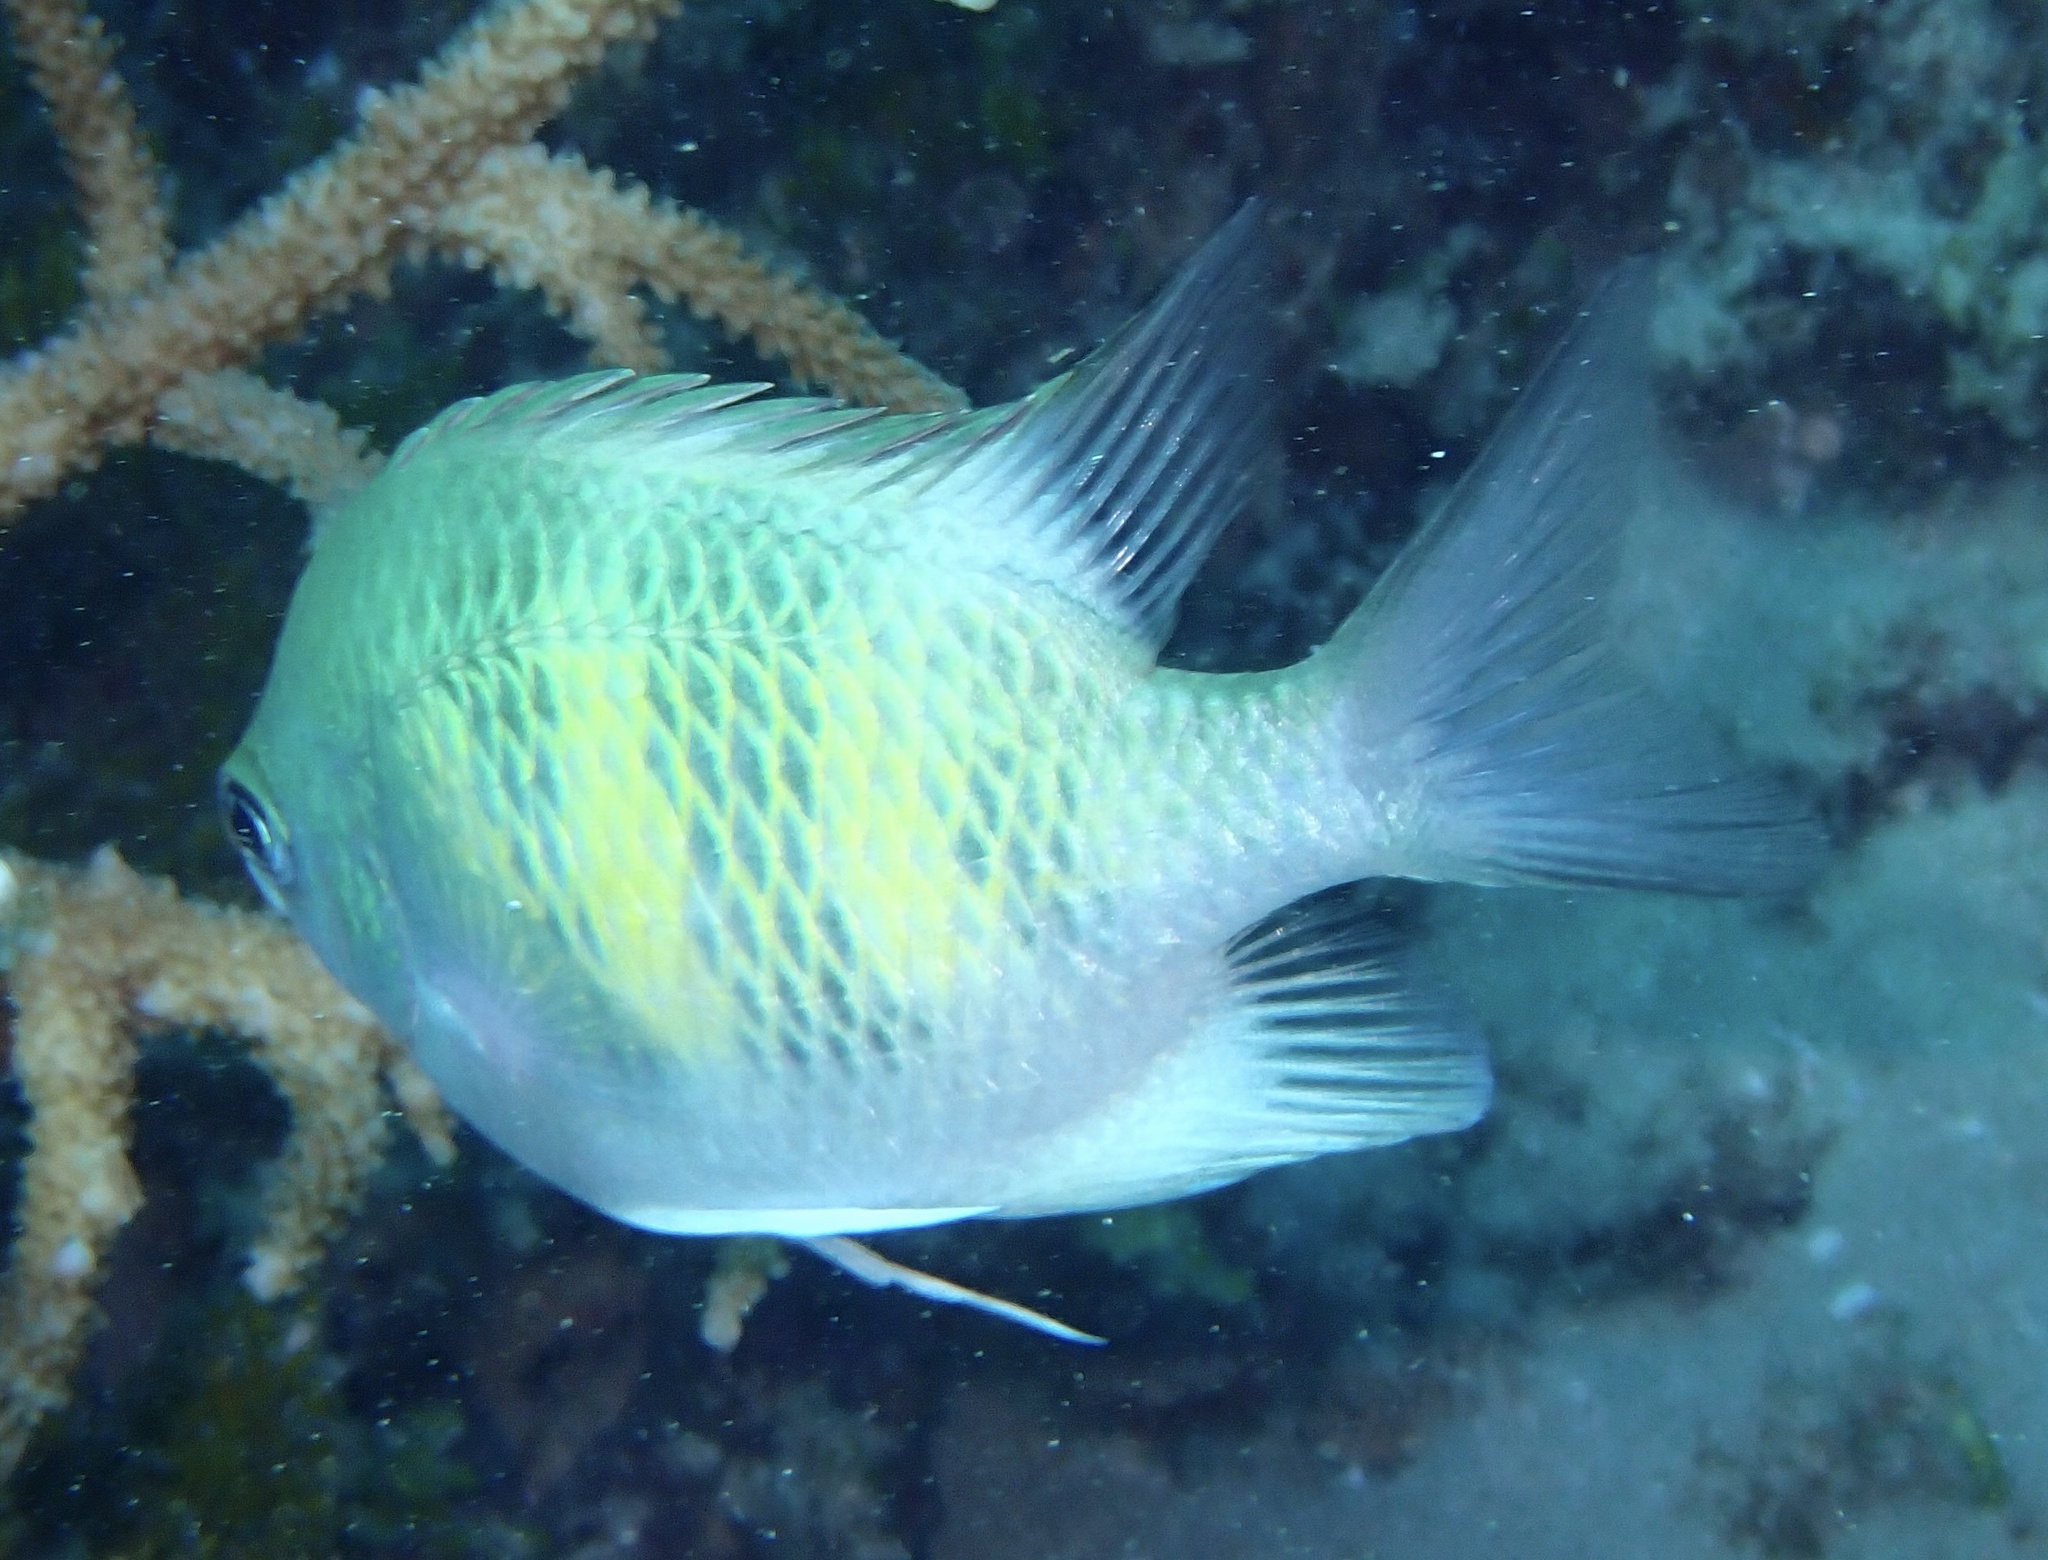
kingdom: Animalia
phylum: Chordata
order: Perciformes
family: Pomacentridae
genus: Amblyglyphidodon
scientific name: Amblyglyphidodon curacao
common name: Staghorn damsel
